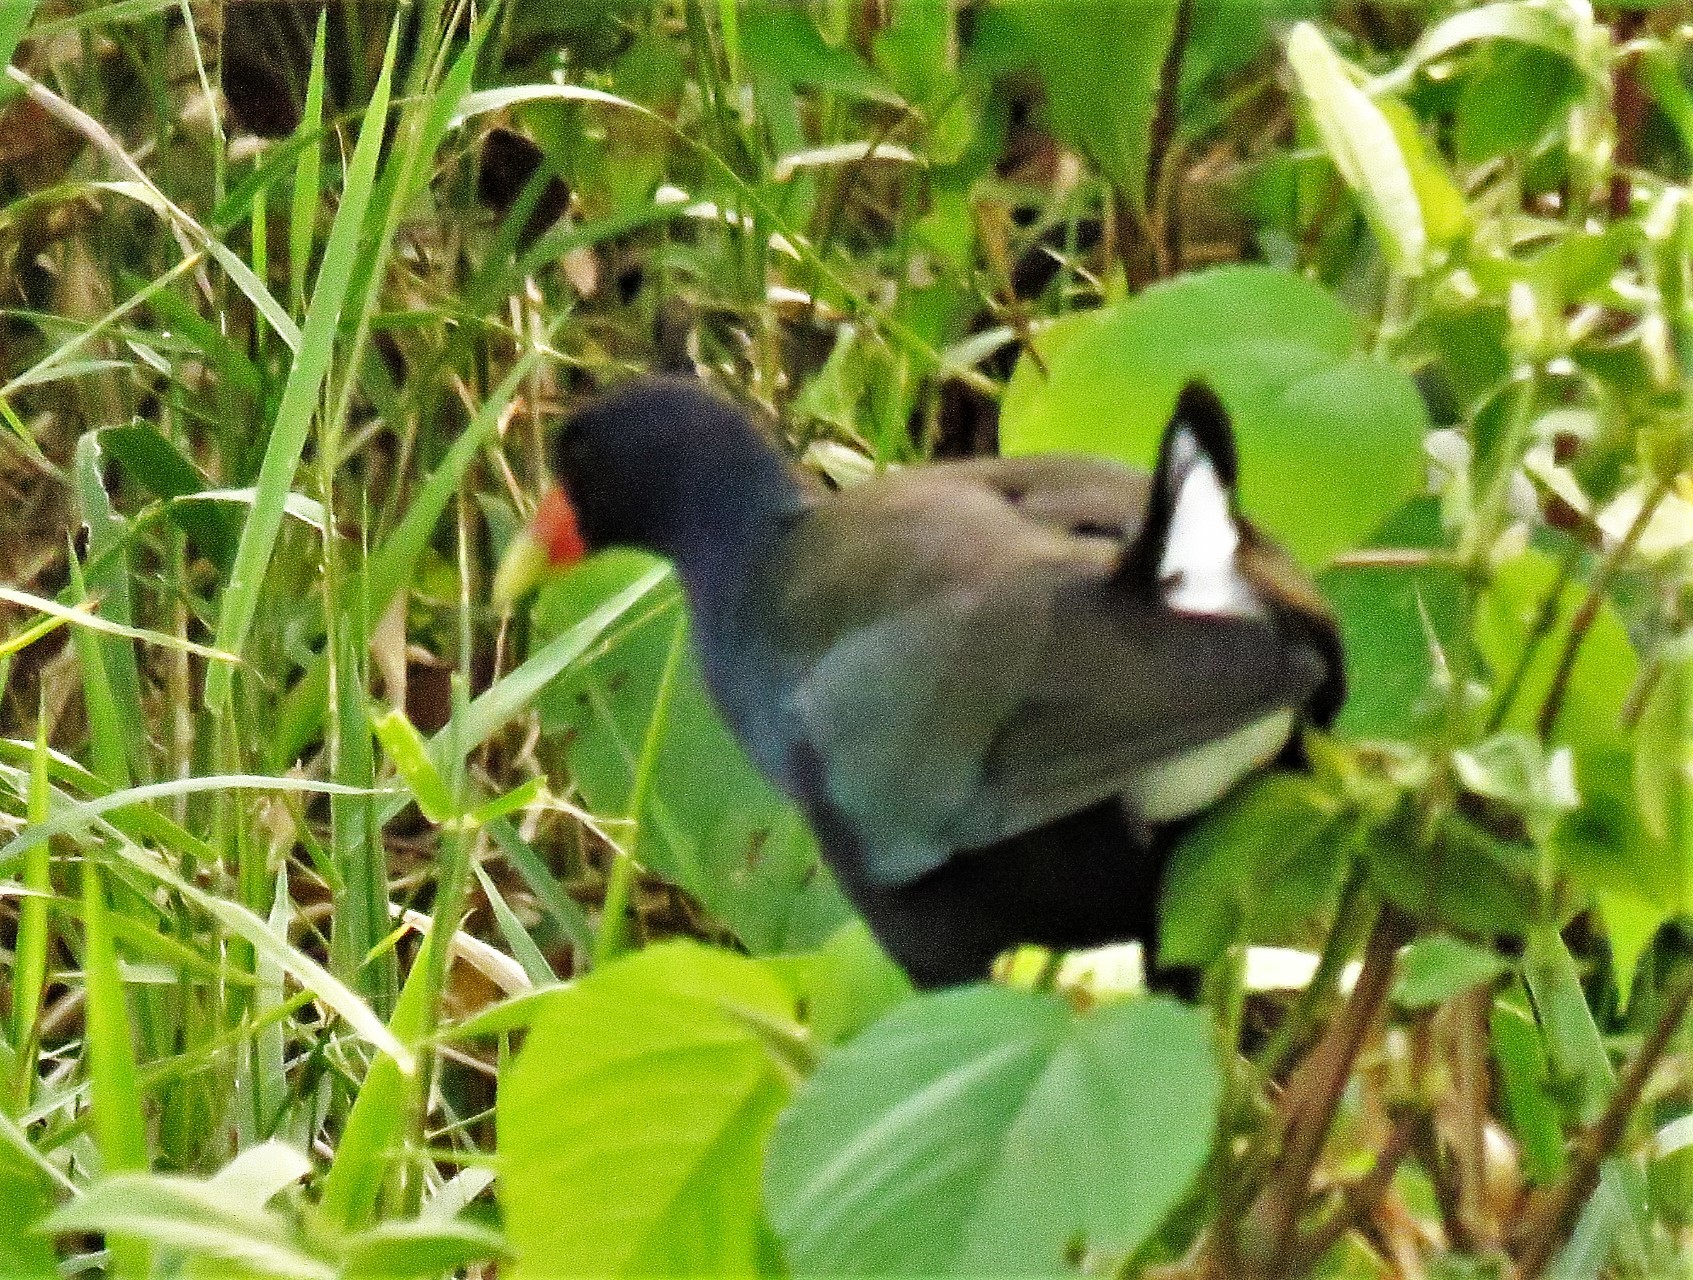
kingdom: Animalia
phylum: Chordata
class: Aves
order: Gruiformes
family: Rallidae
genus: Porphyrio
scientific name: Porphyrio martinica
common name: Purple gallinule
